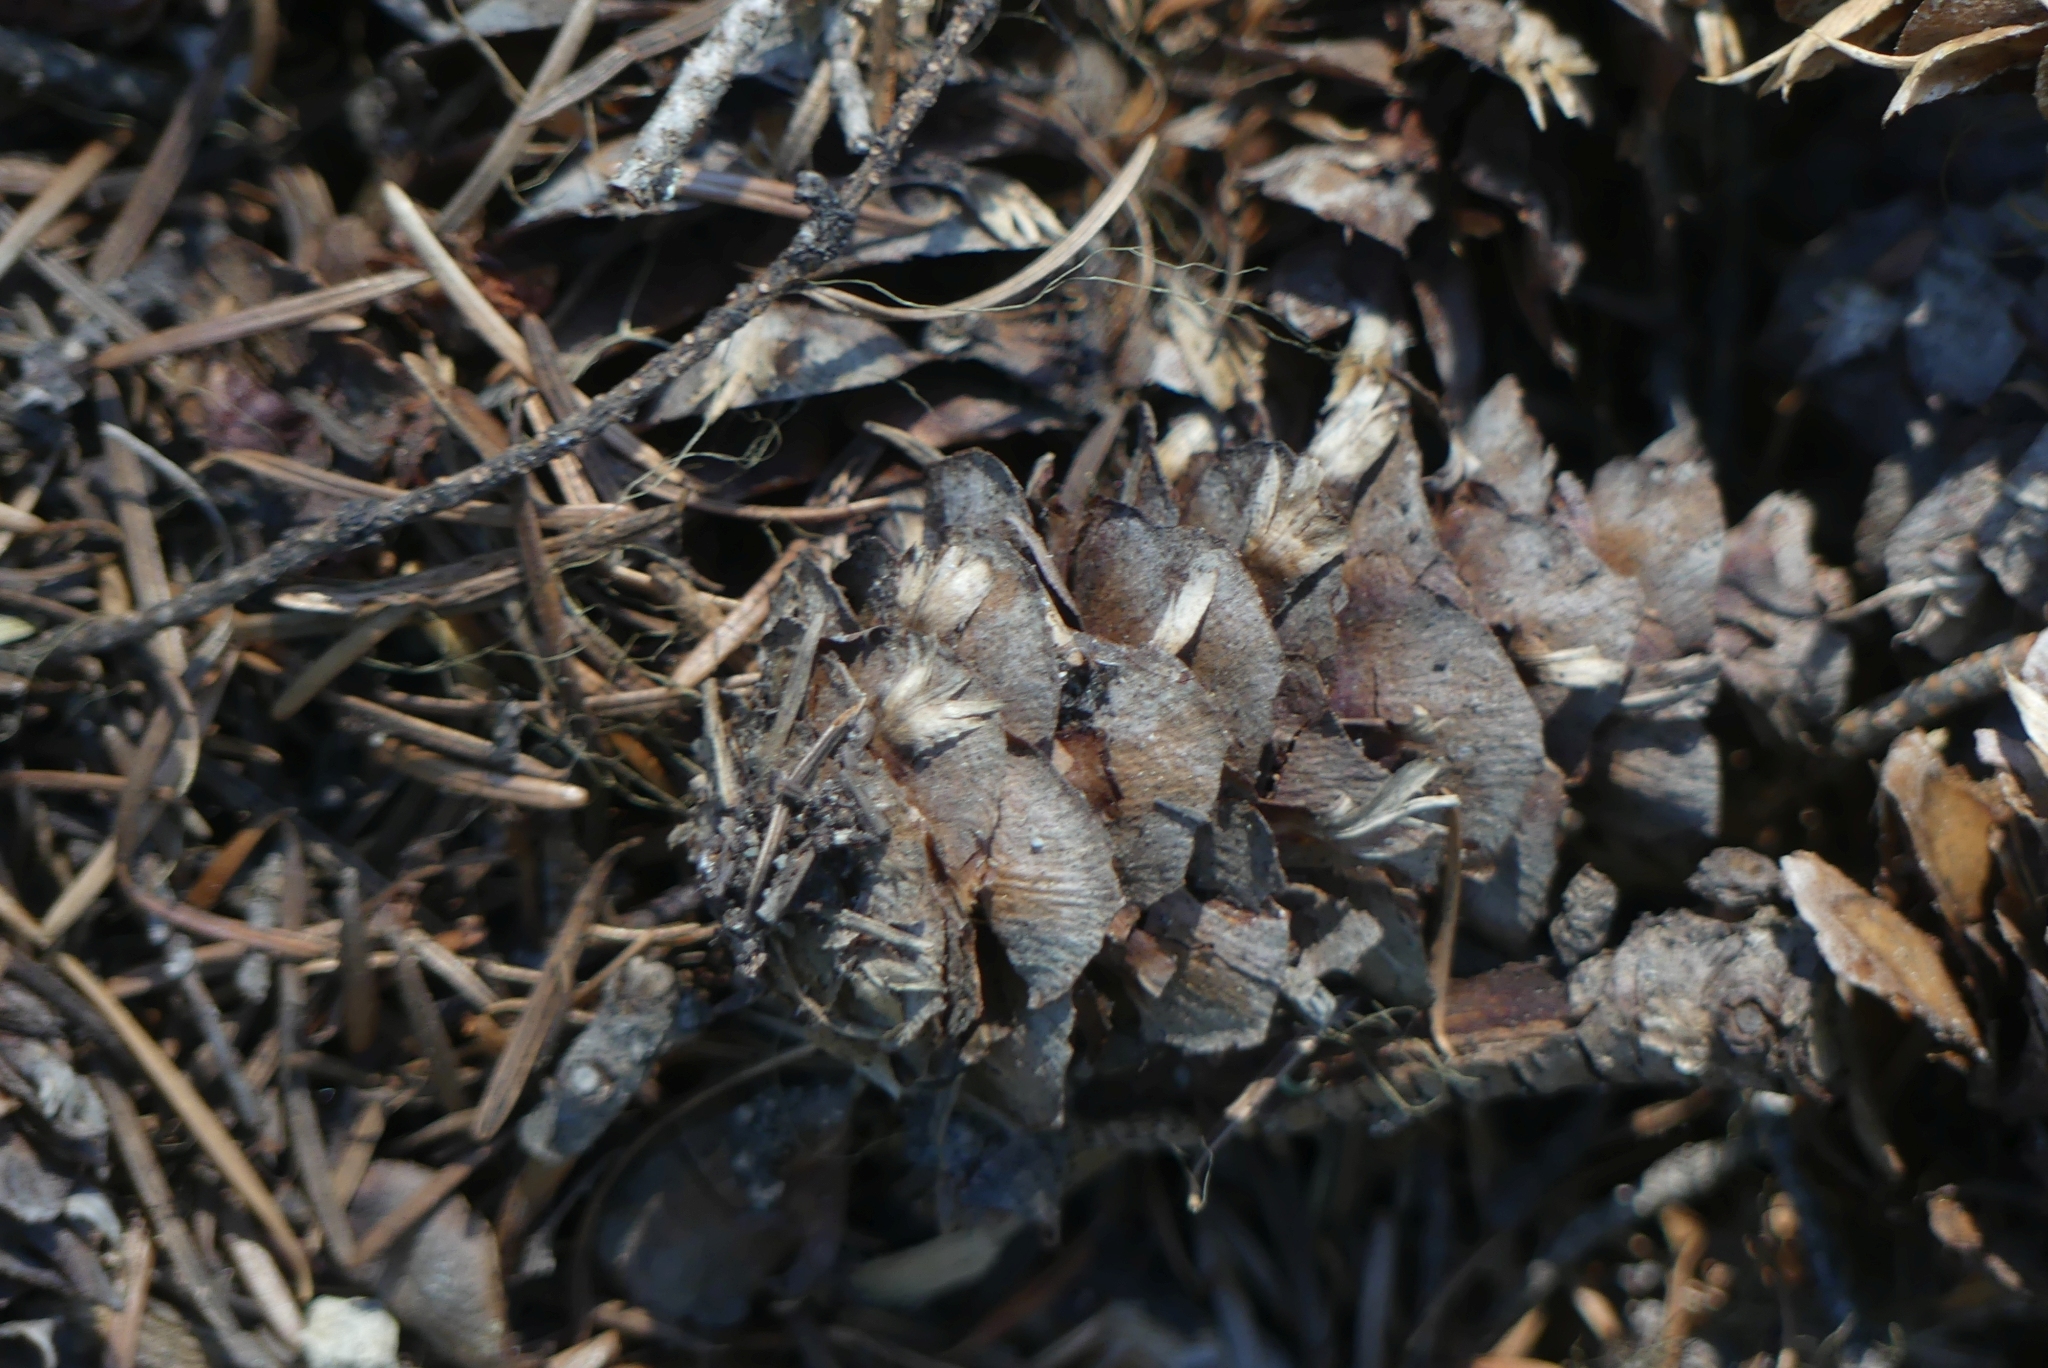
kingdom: Plantae
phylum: Tracheophyta
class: Pinopsida
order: Pinales
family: Pinaceae
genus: Pseudotsuga
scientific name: Pseudotsuga menziesii
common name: Douglas fir
